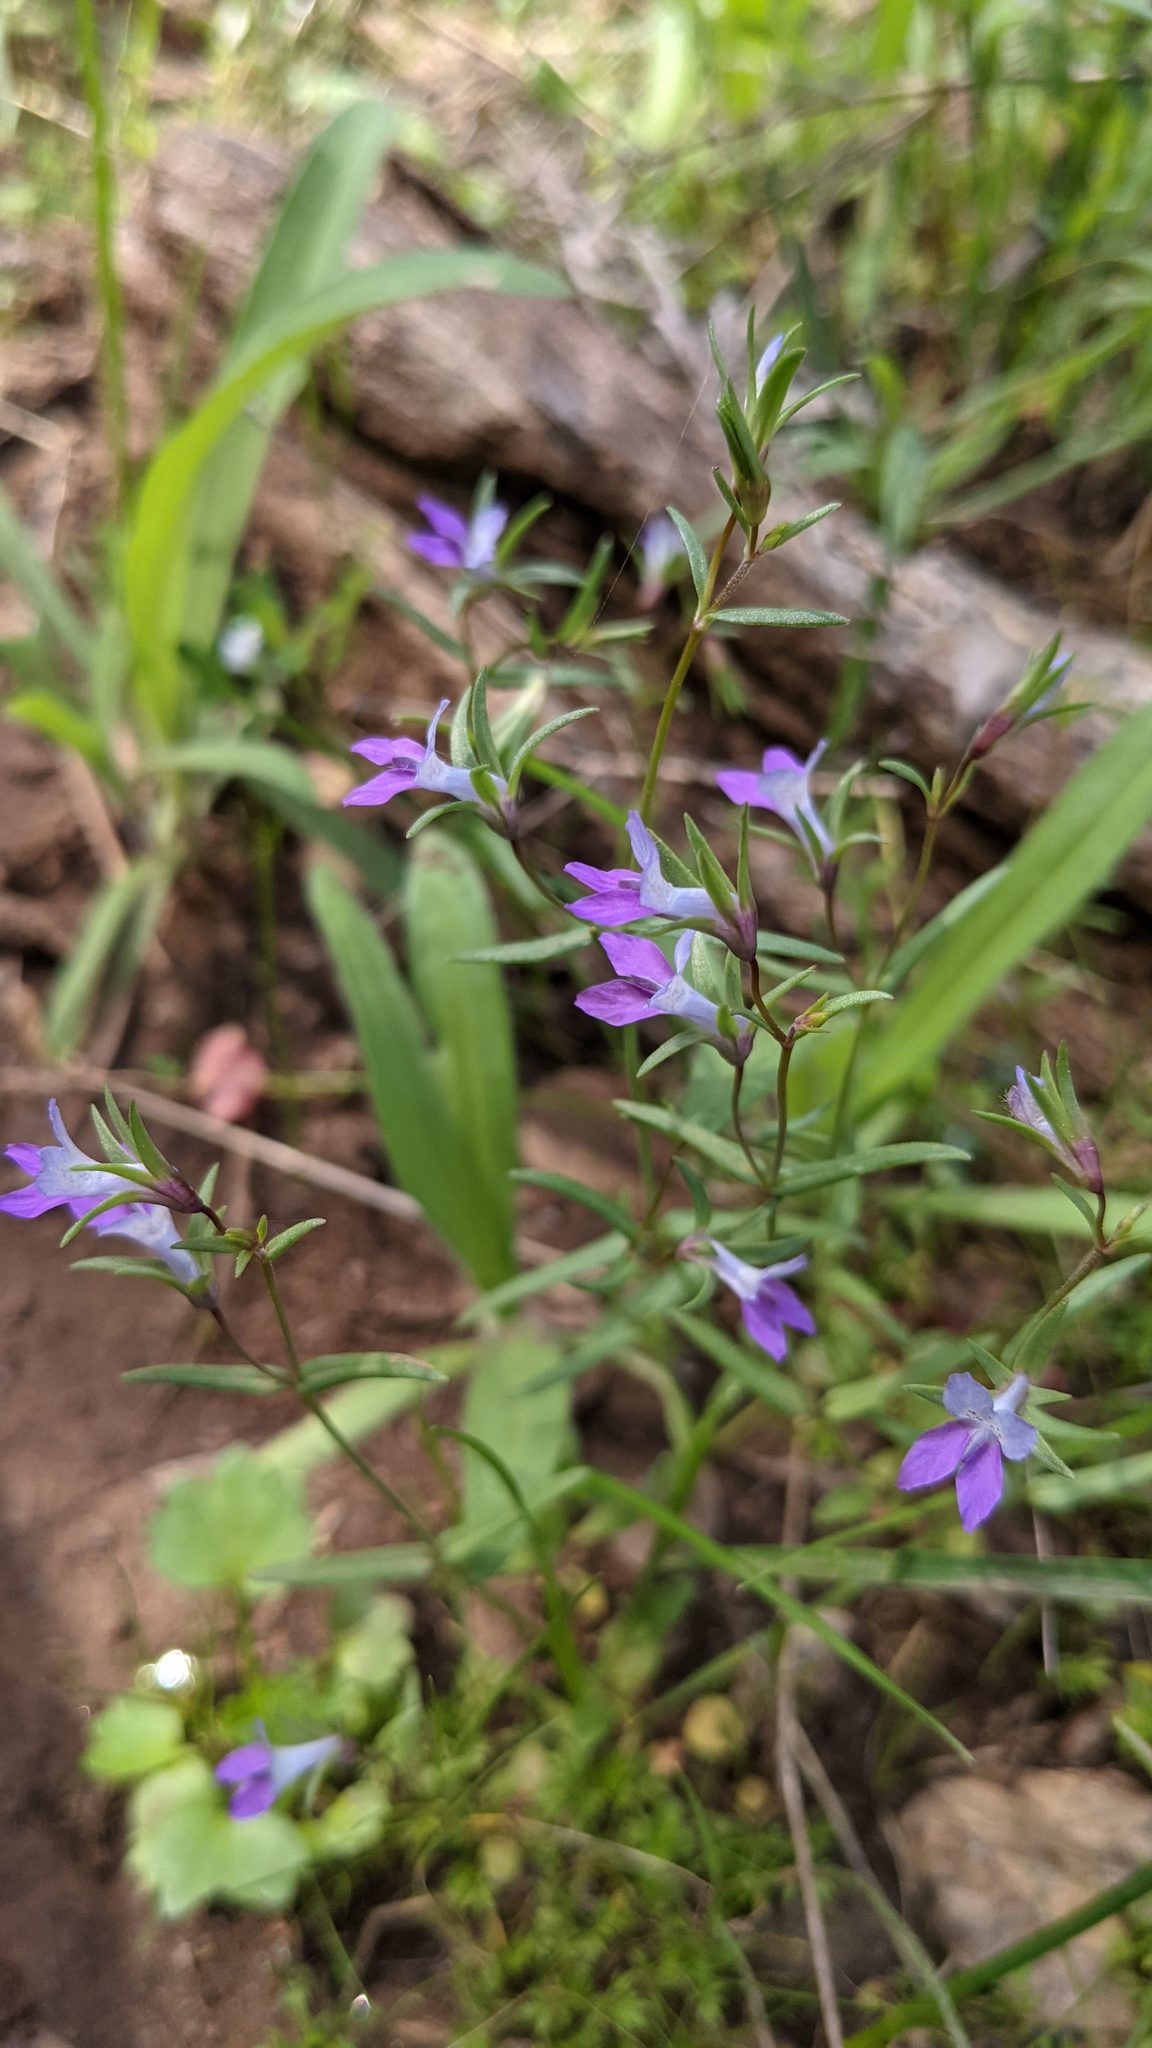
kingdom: Plantae
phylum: Tracheophyta
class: Magnoliopsida
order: Lamiales
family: Plantaginaceae
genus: Collinsia
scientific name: Collinsia sparsiflora
